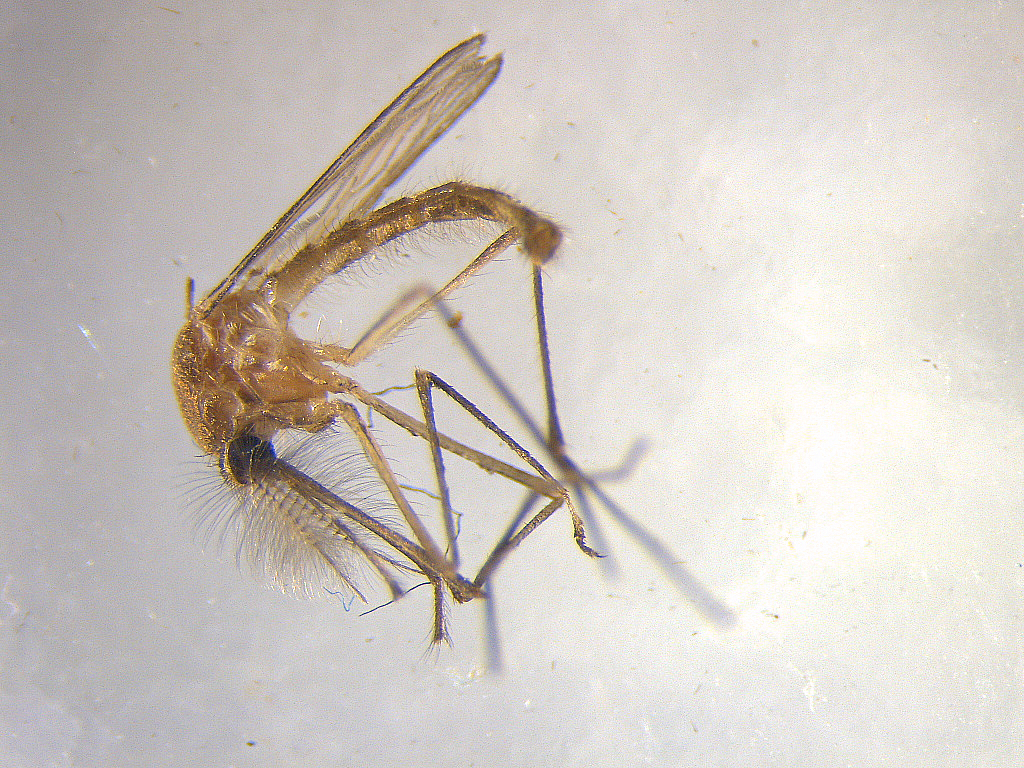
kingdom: Animalia
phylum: Arthropoda
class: Insecta
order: Diptera
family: Culicidae
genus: Culex
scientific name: Culex quinquefasciatus
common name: Southern house mosquito
